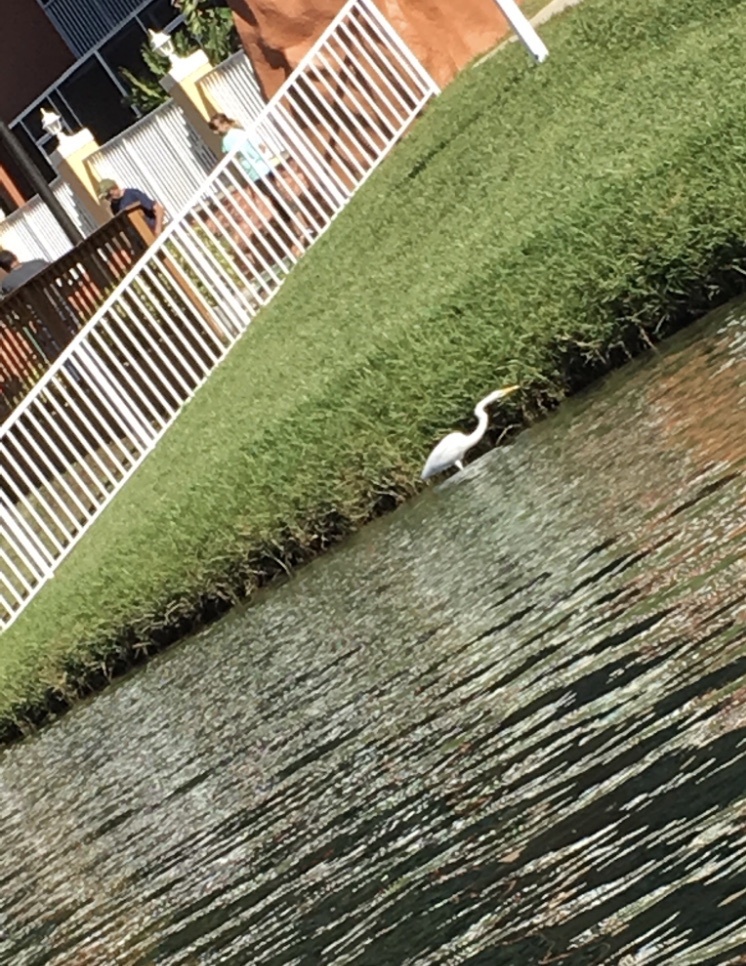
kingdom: Animalia
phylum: Chordata
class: Aves
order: Pelecaniformes
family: Ardeidae
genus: Ardea
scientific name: Ardea alba
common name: Great egret
